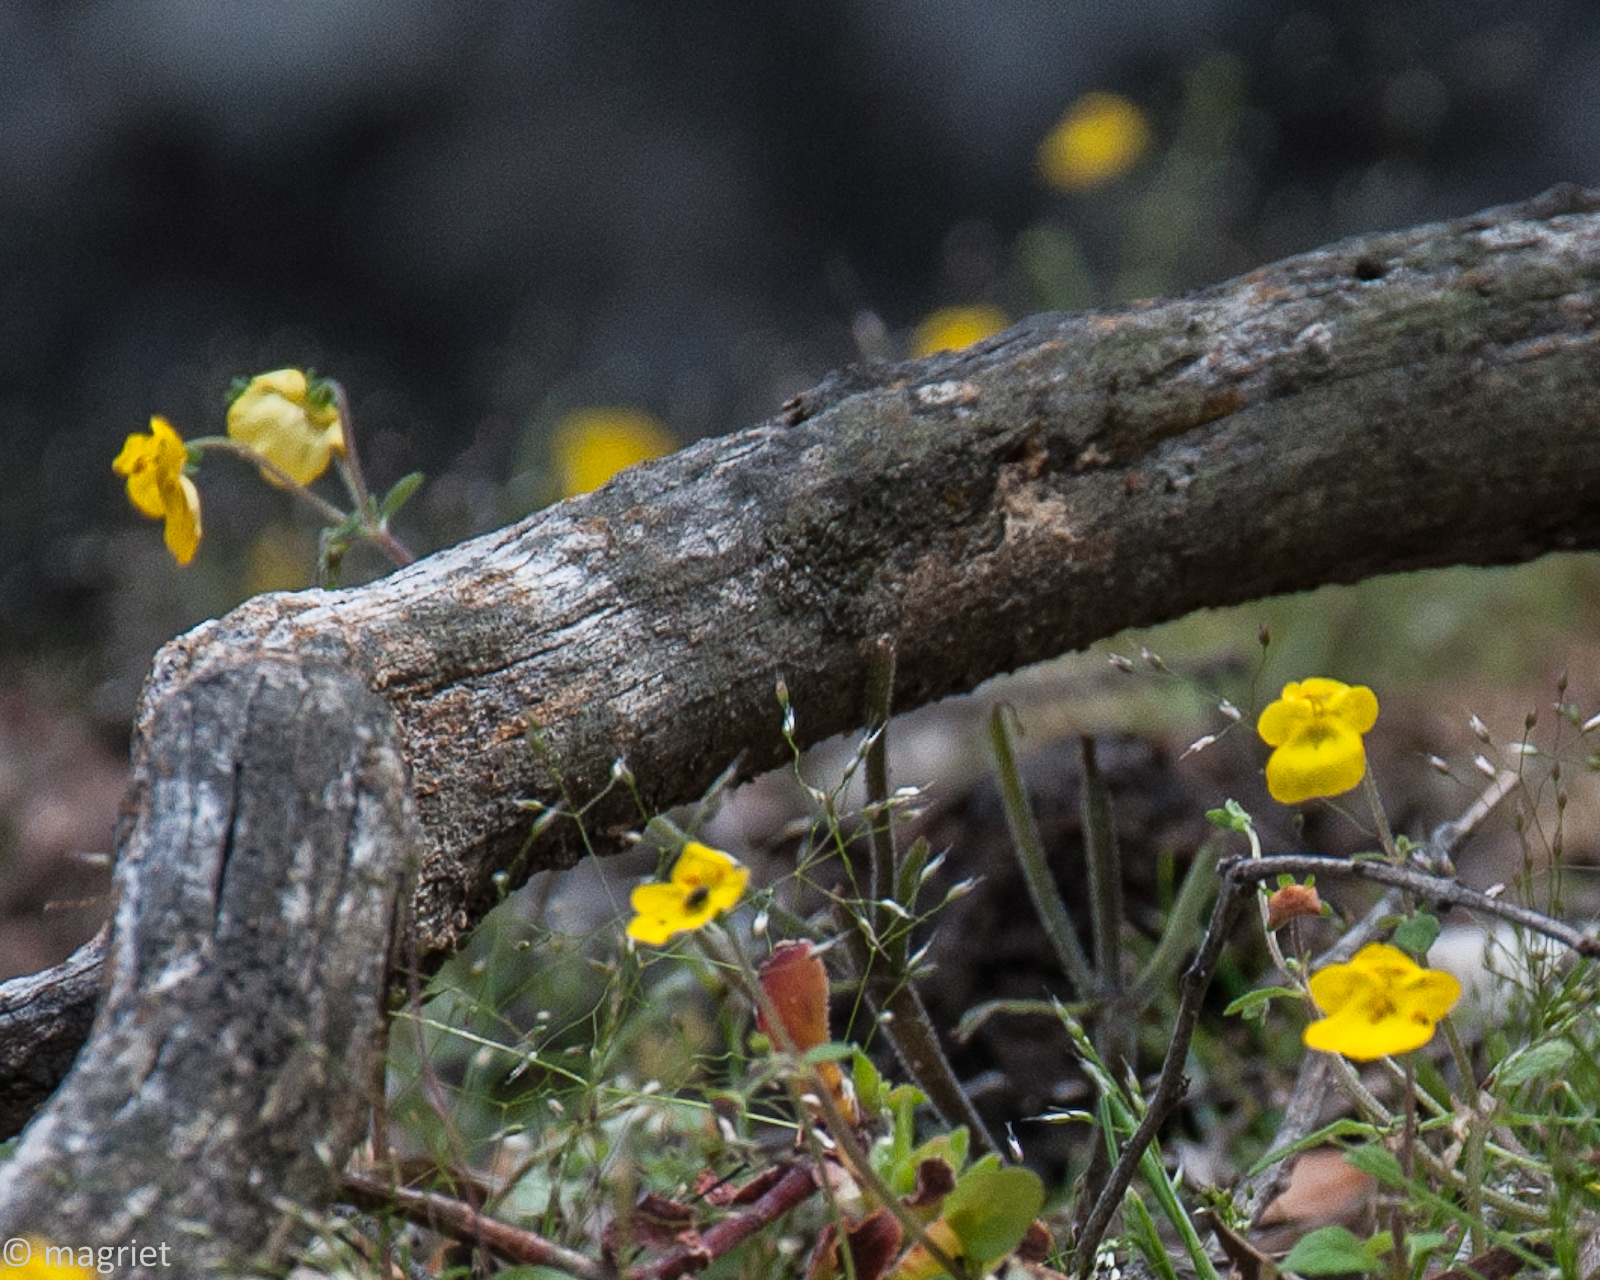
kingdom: Plantae
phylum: Tracheophyta
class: Magnoliopsida
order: Lamiales
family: Scrophulariaceae
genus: Hemimeris
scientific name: Hemimeris racemosa
